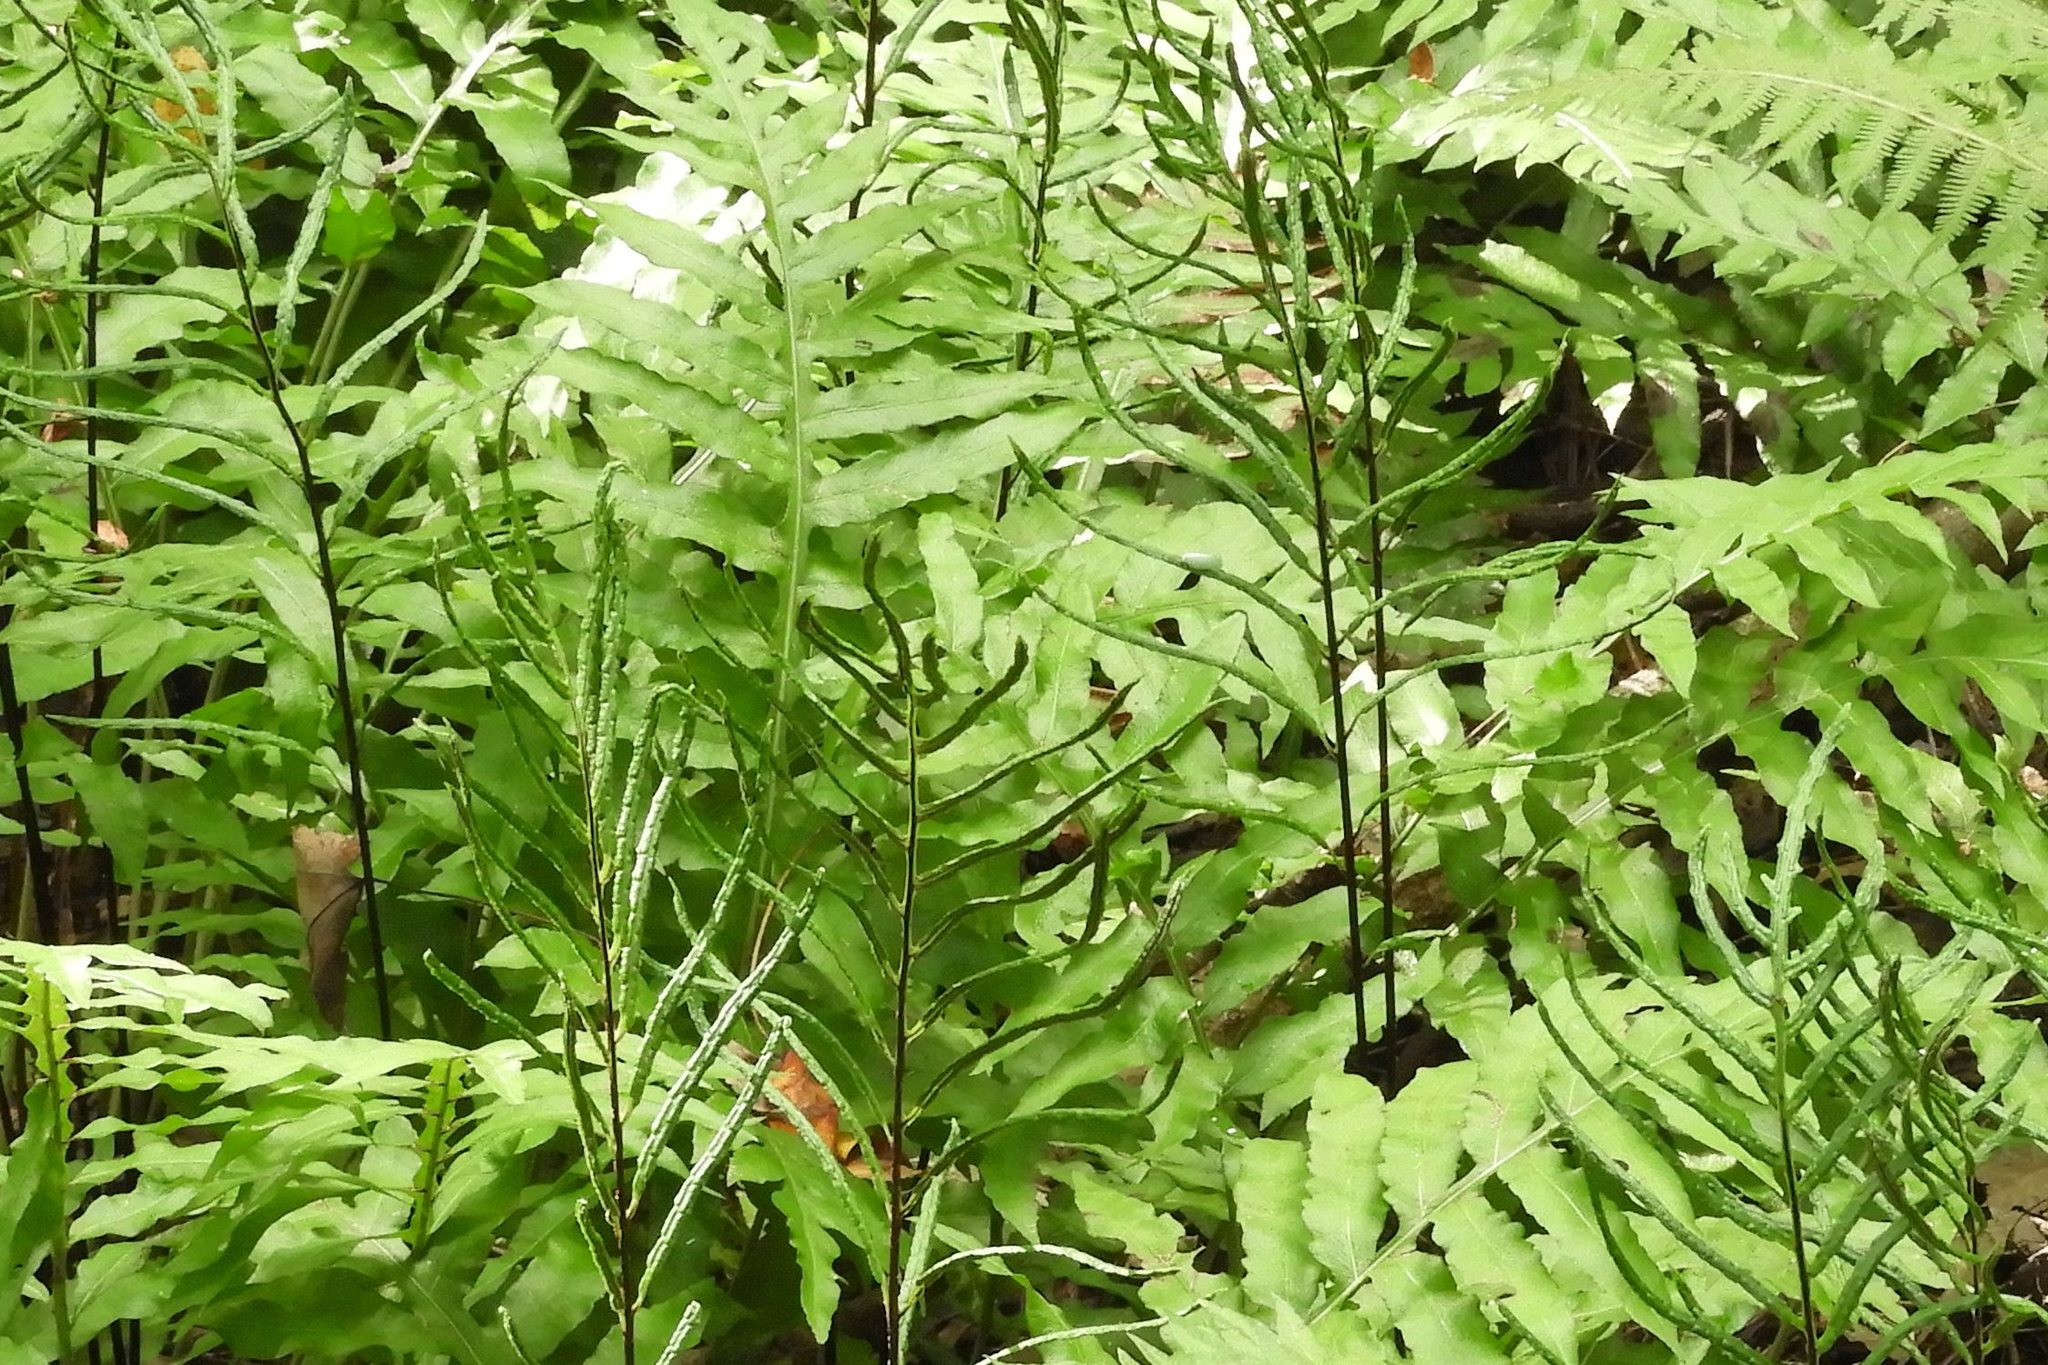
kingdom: Plantae
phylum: Tracheophyta
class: Polypodiopsida
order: Polypodiales
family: Blechnaceae
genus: Lorinseria
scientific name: Lorinseria areolata
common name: Dwarf chain fern
